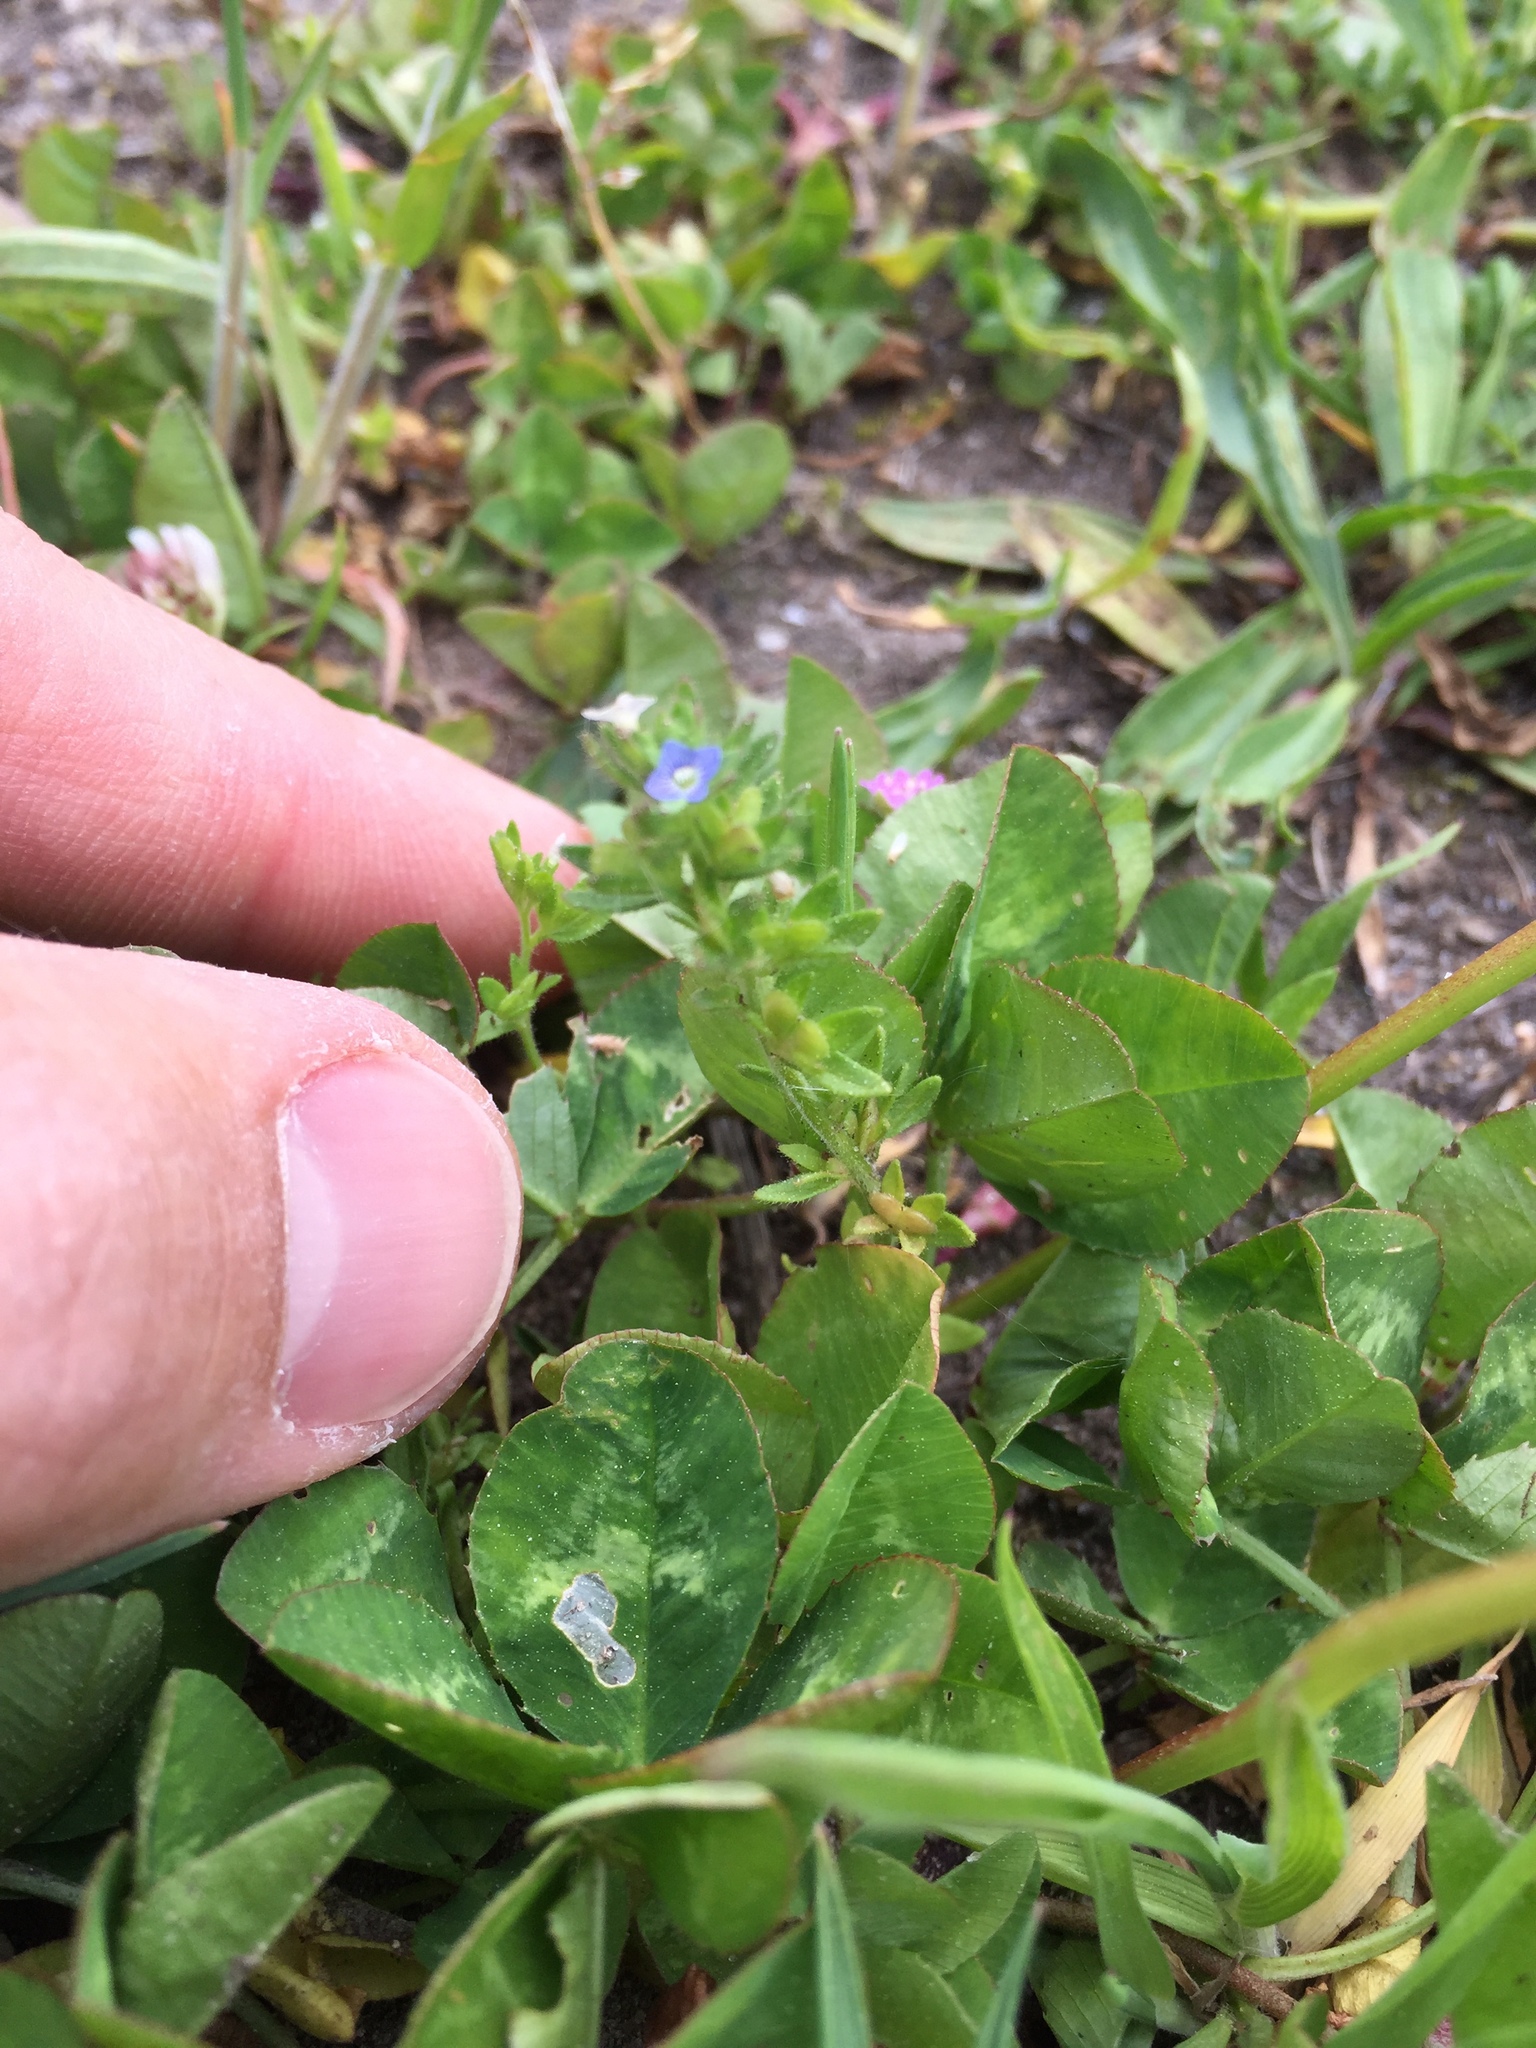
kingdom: Plantae
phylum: Tracheophyta
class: Magnoliopsida
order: Lamiales
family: Plantaginaceae
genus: Veronica
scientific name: Veronica arvensis
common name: Corn speedwell
